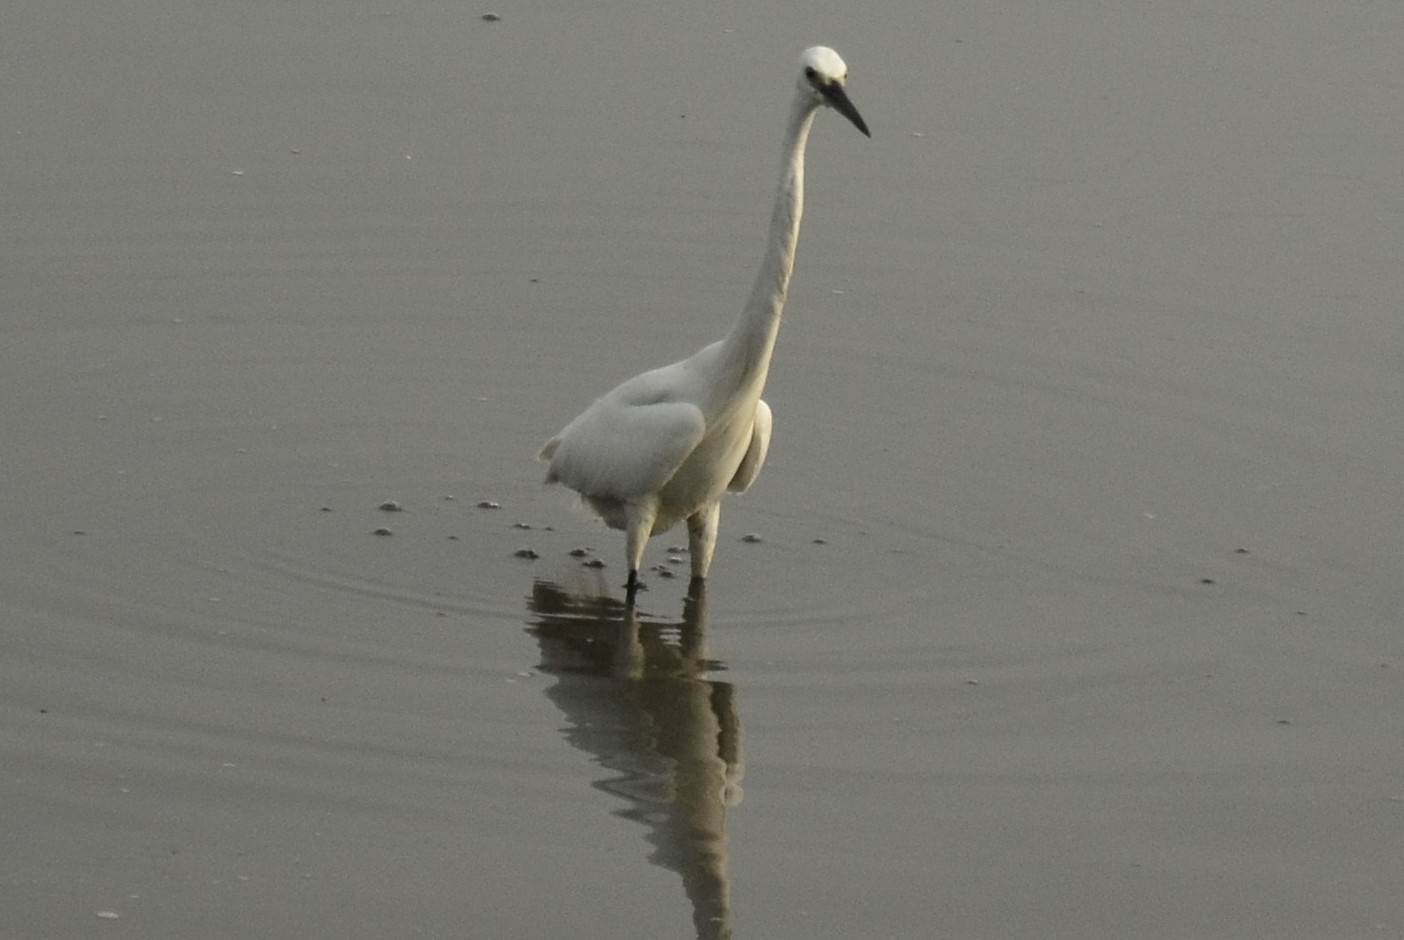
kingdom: Animalia
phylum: Chordata
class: Aves
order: Pelecaniformes
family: Ardeidae
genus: Egretta
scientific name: Egretta garzetta
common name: Little egret
